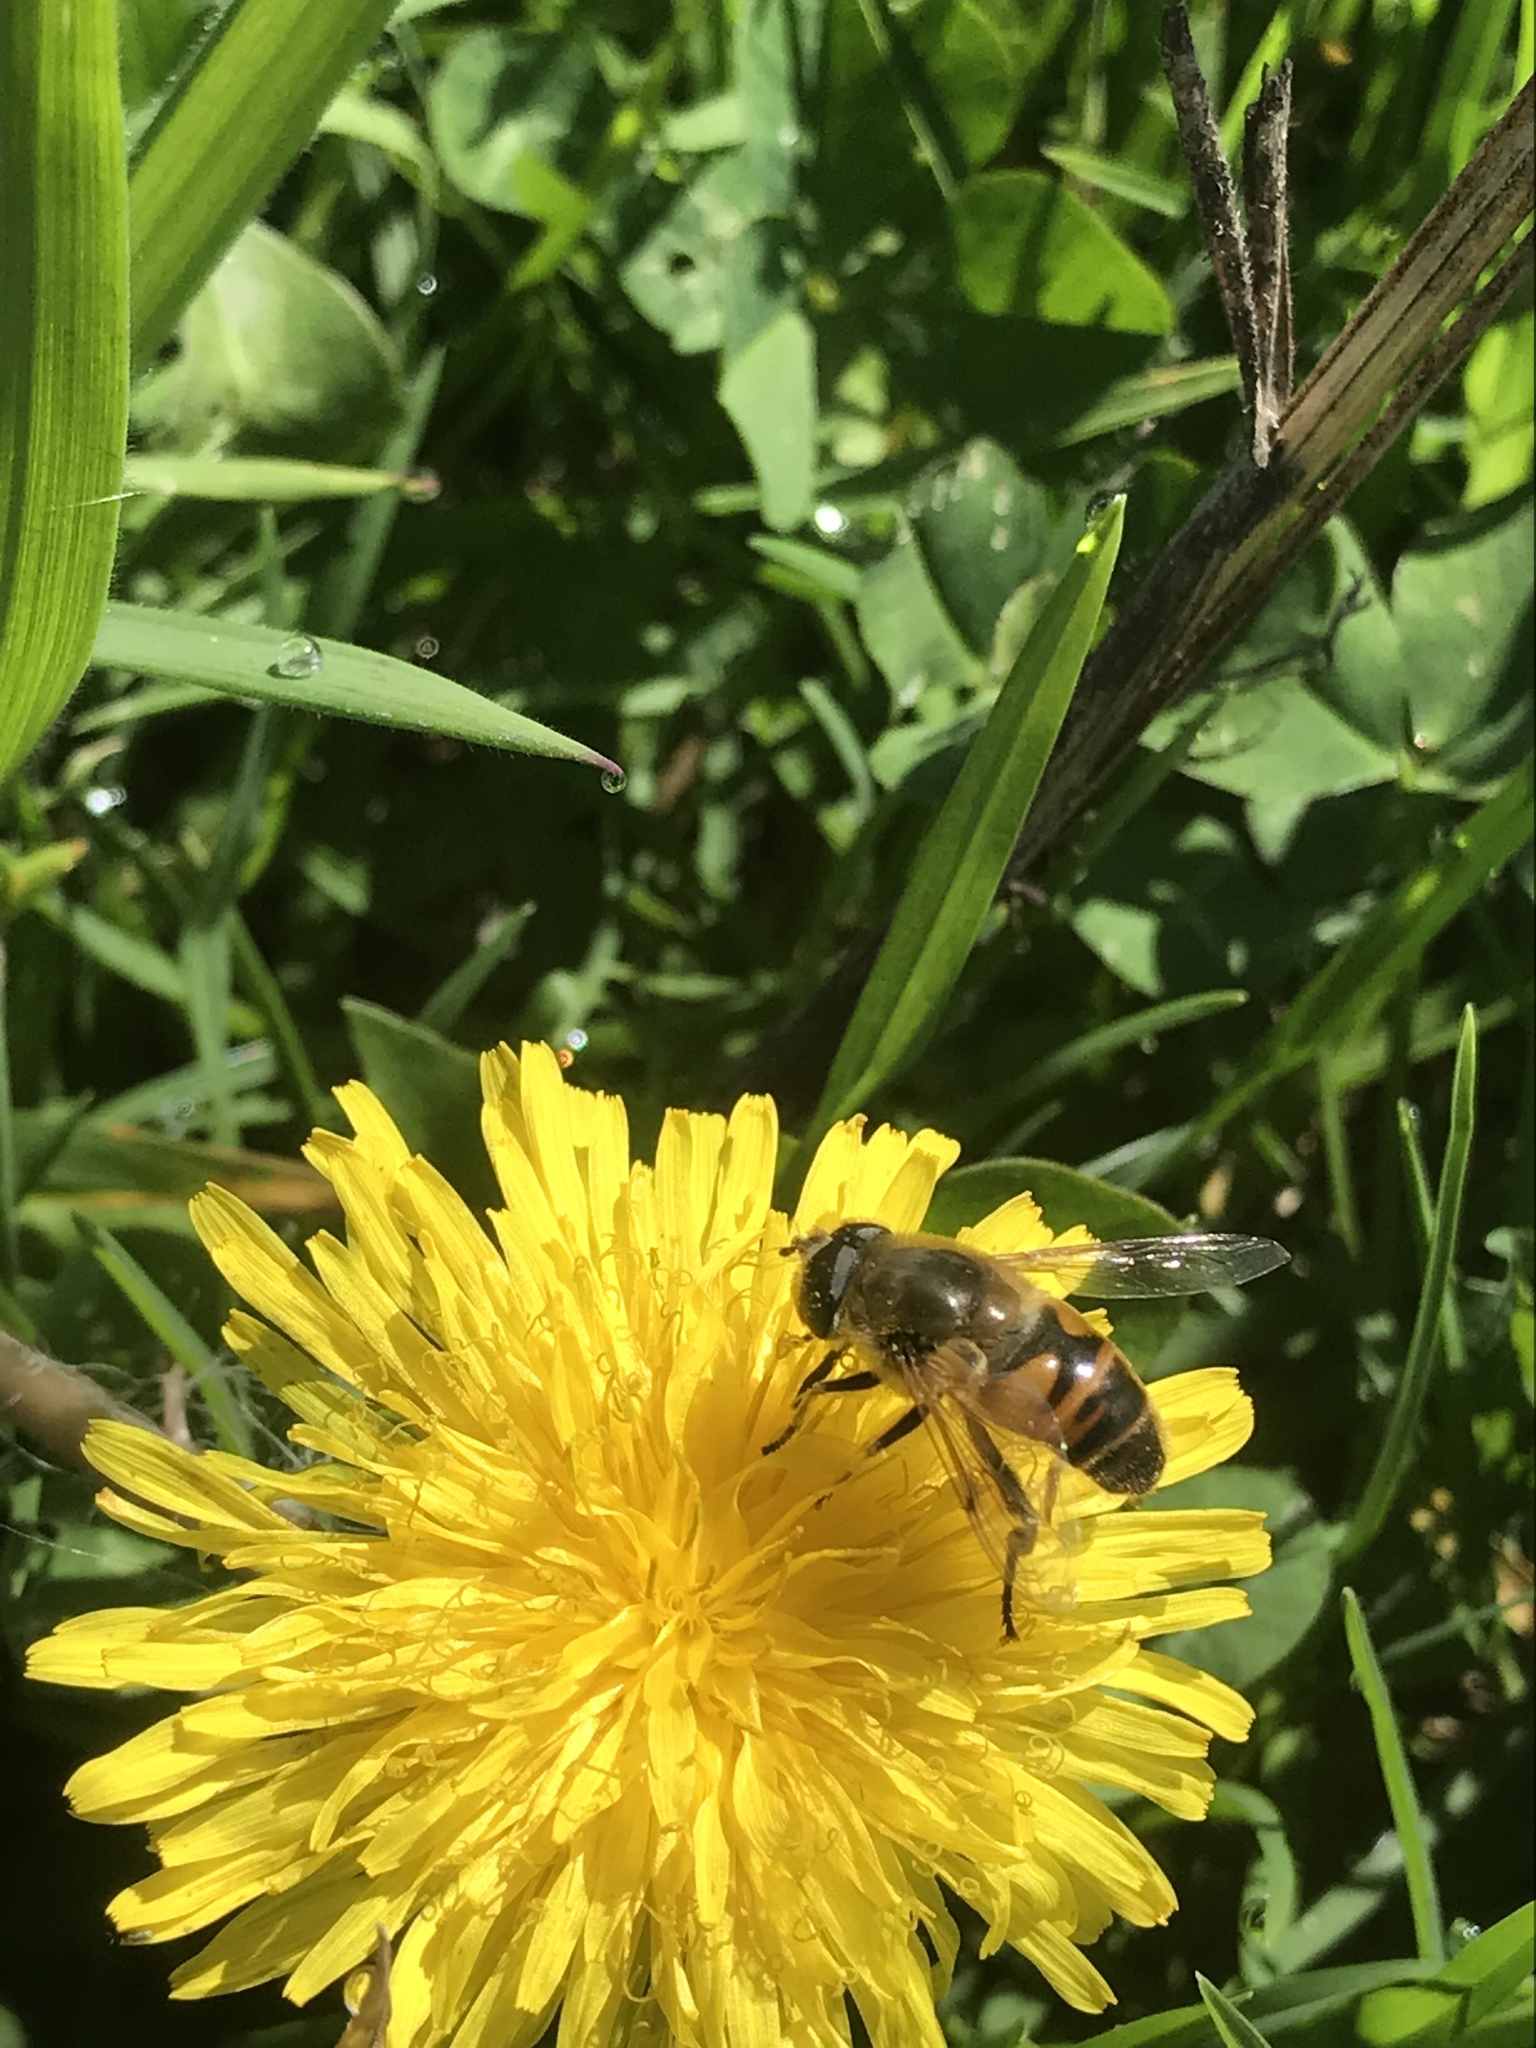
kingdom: Animalia
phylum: Arthropoda
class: Insecta
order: Diptera
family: Syrphidae
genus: Eristalis
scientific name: Eristalis tenax
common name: Drone fly
